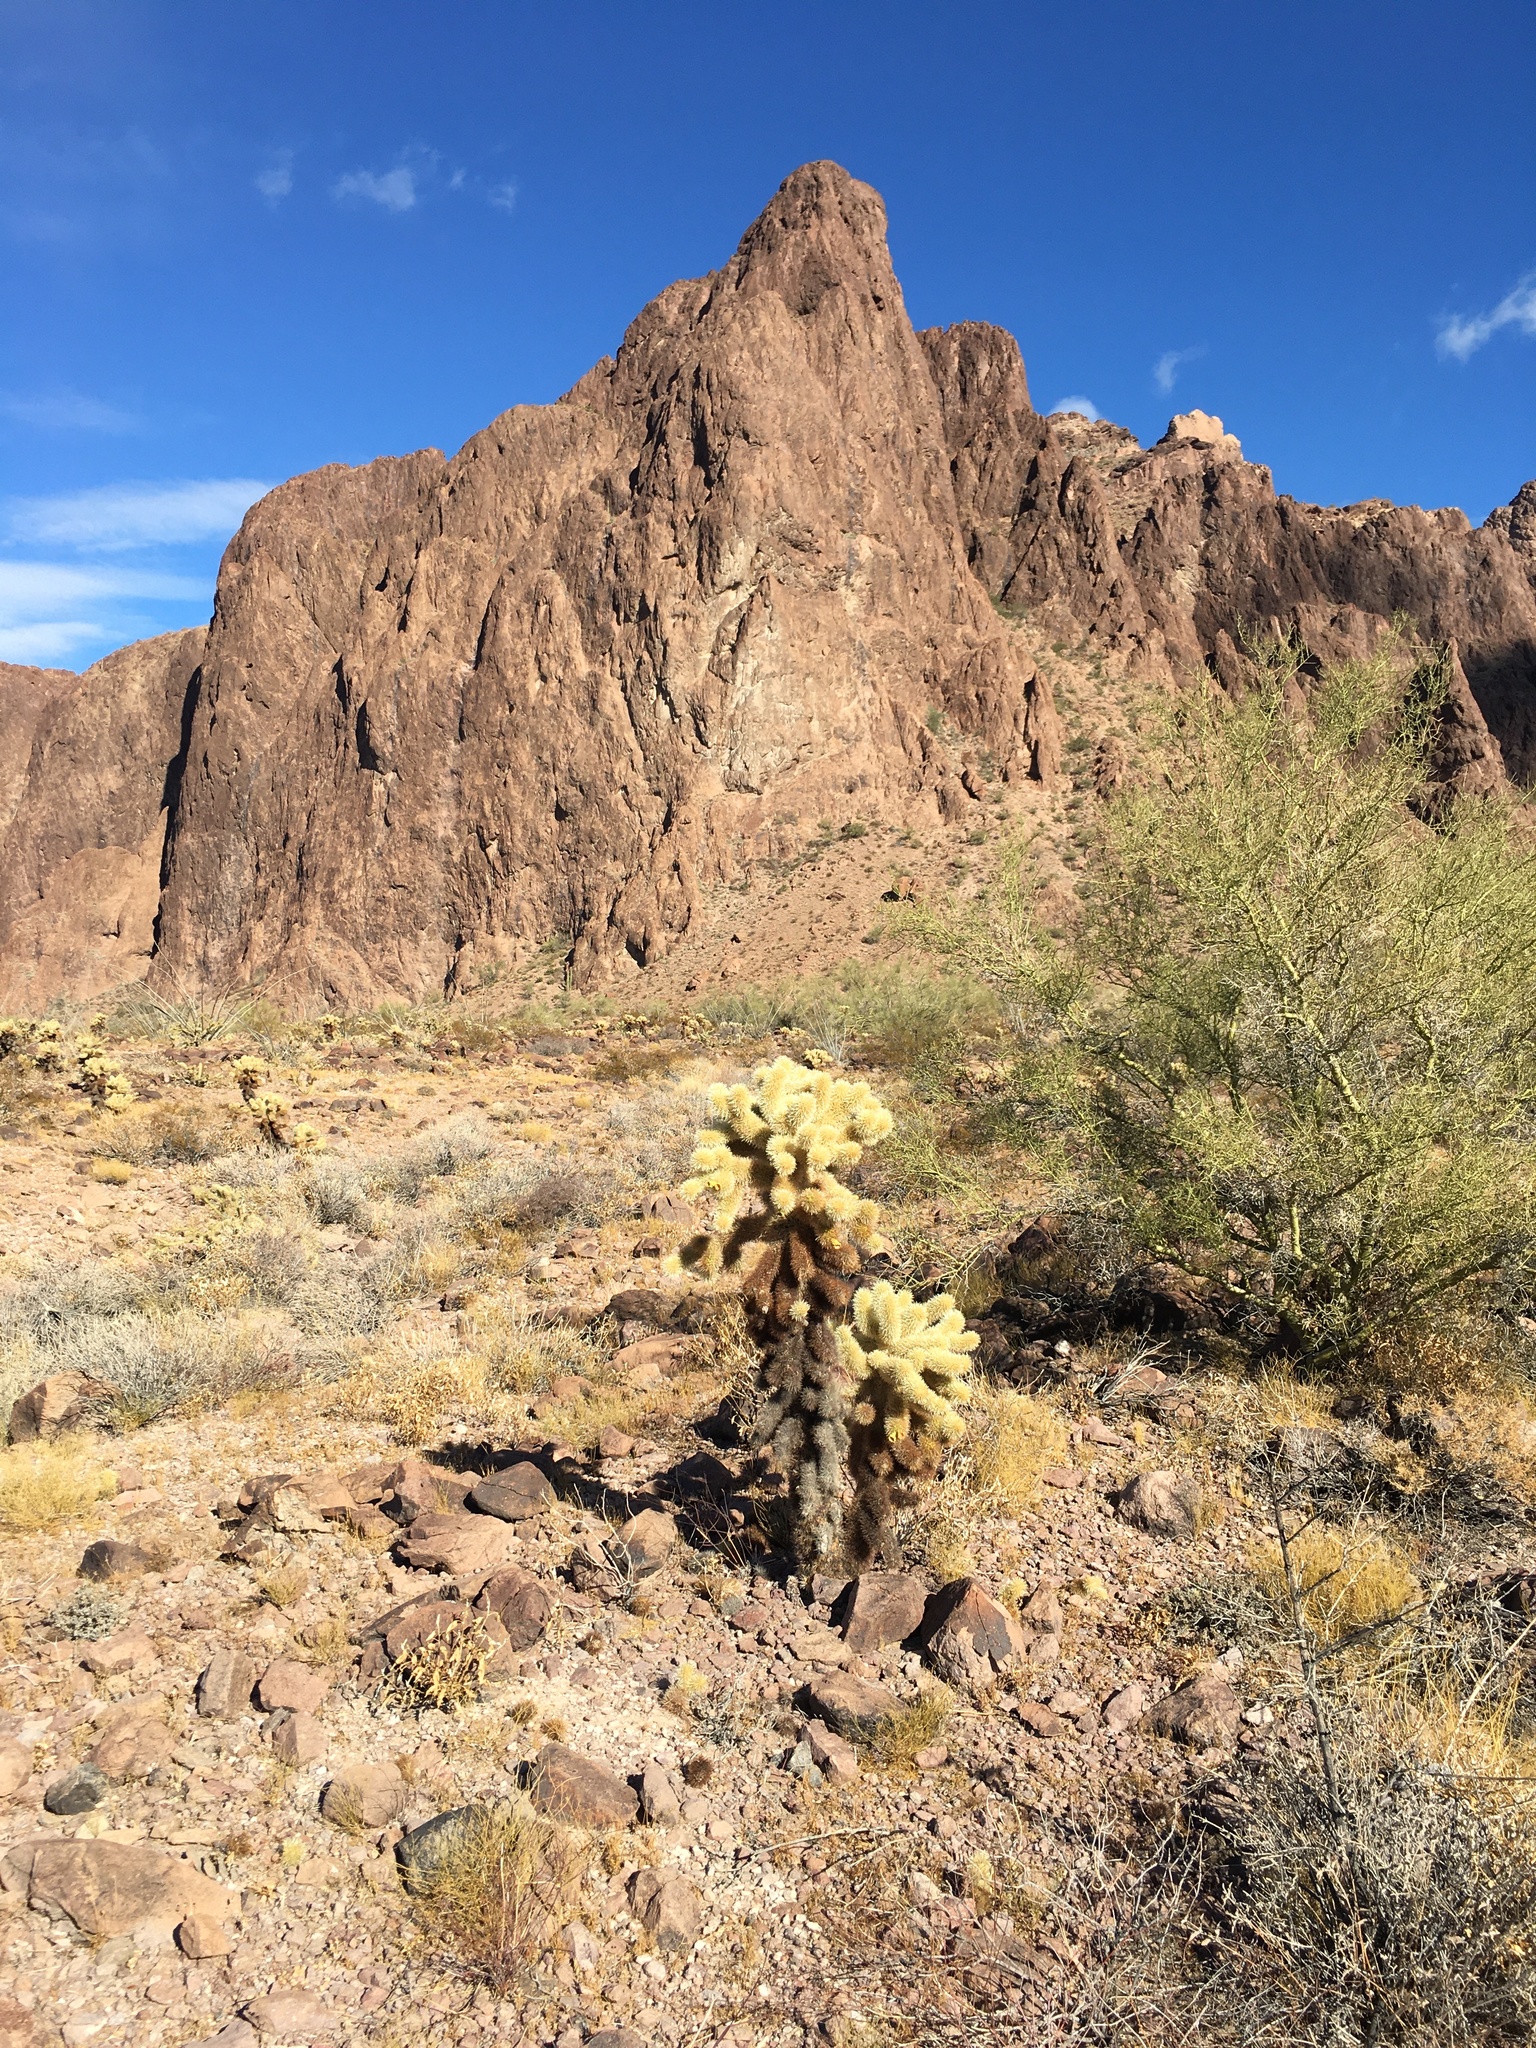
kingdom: Plantae
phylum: Tracheophyta
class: Magnoliopsida
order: Caryophyllales
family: Cactaceae
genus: Cylindropuntia
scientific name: Cylindropuntia fosbergii
